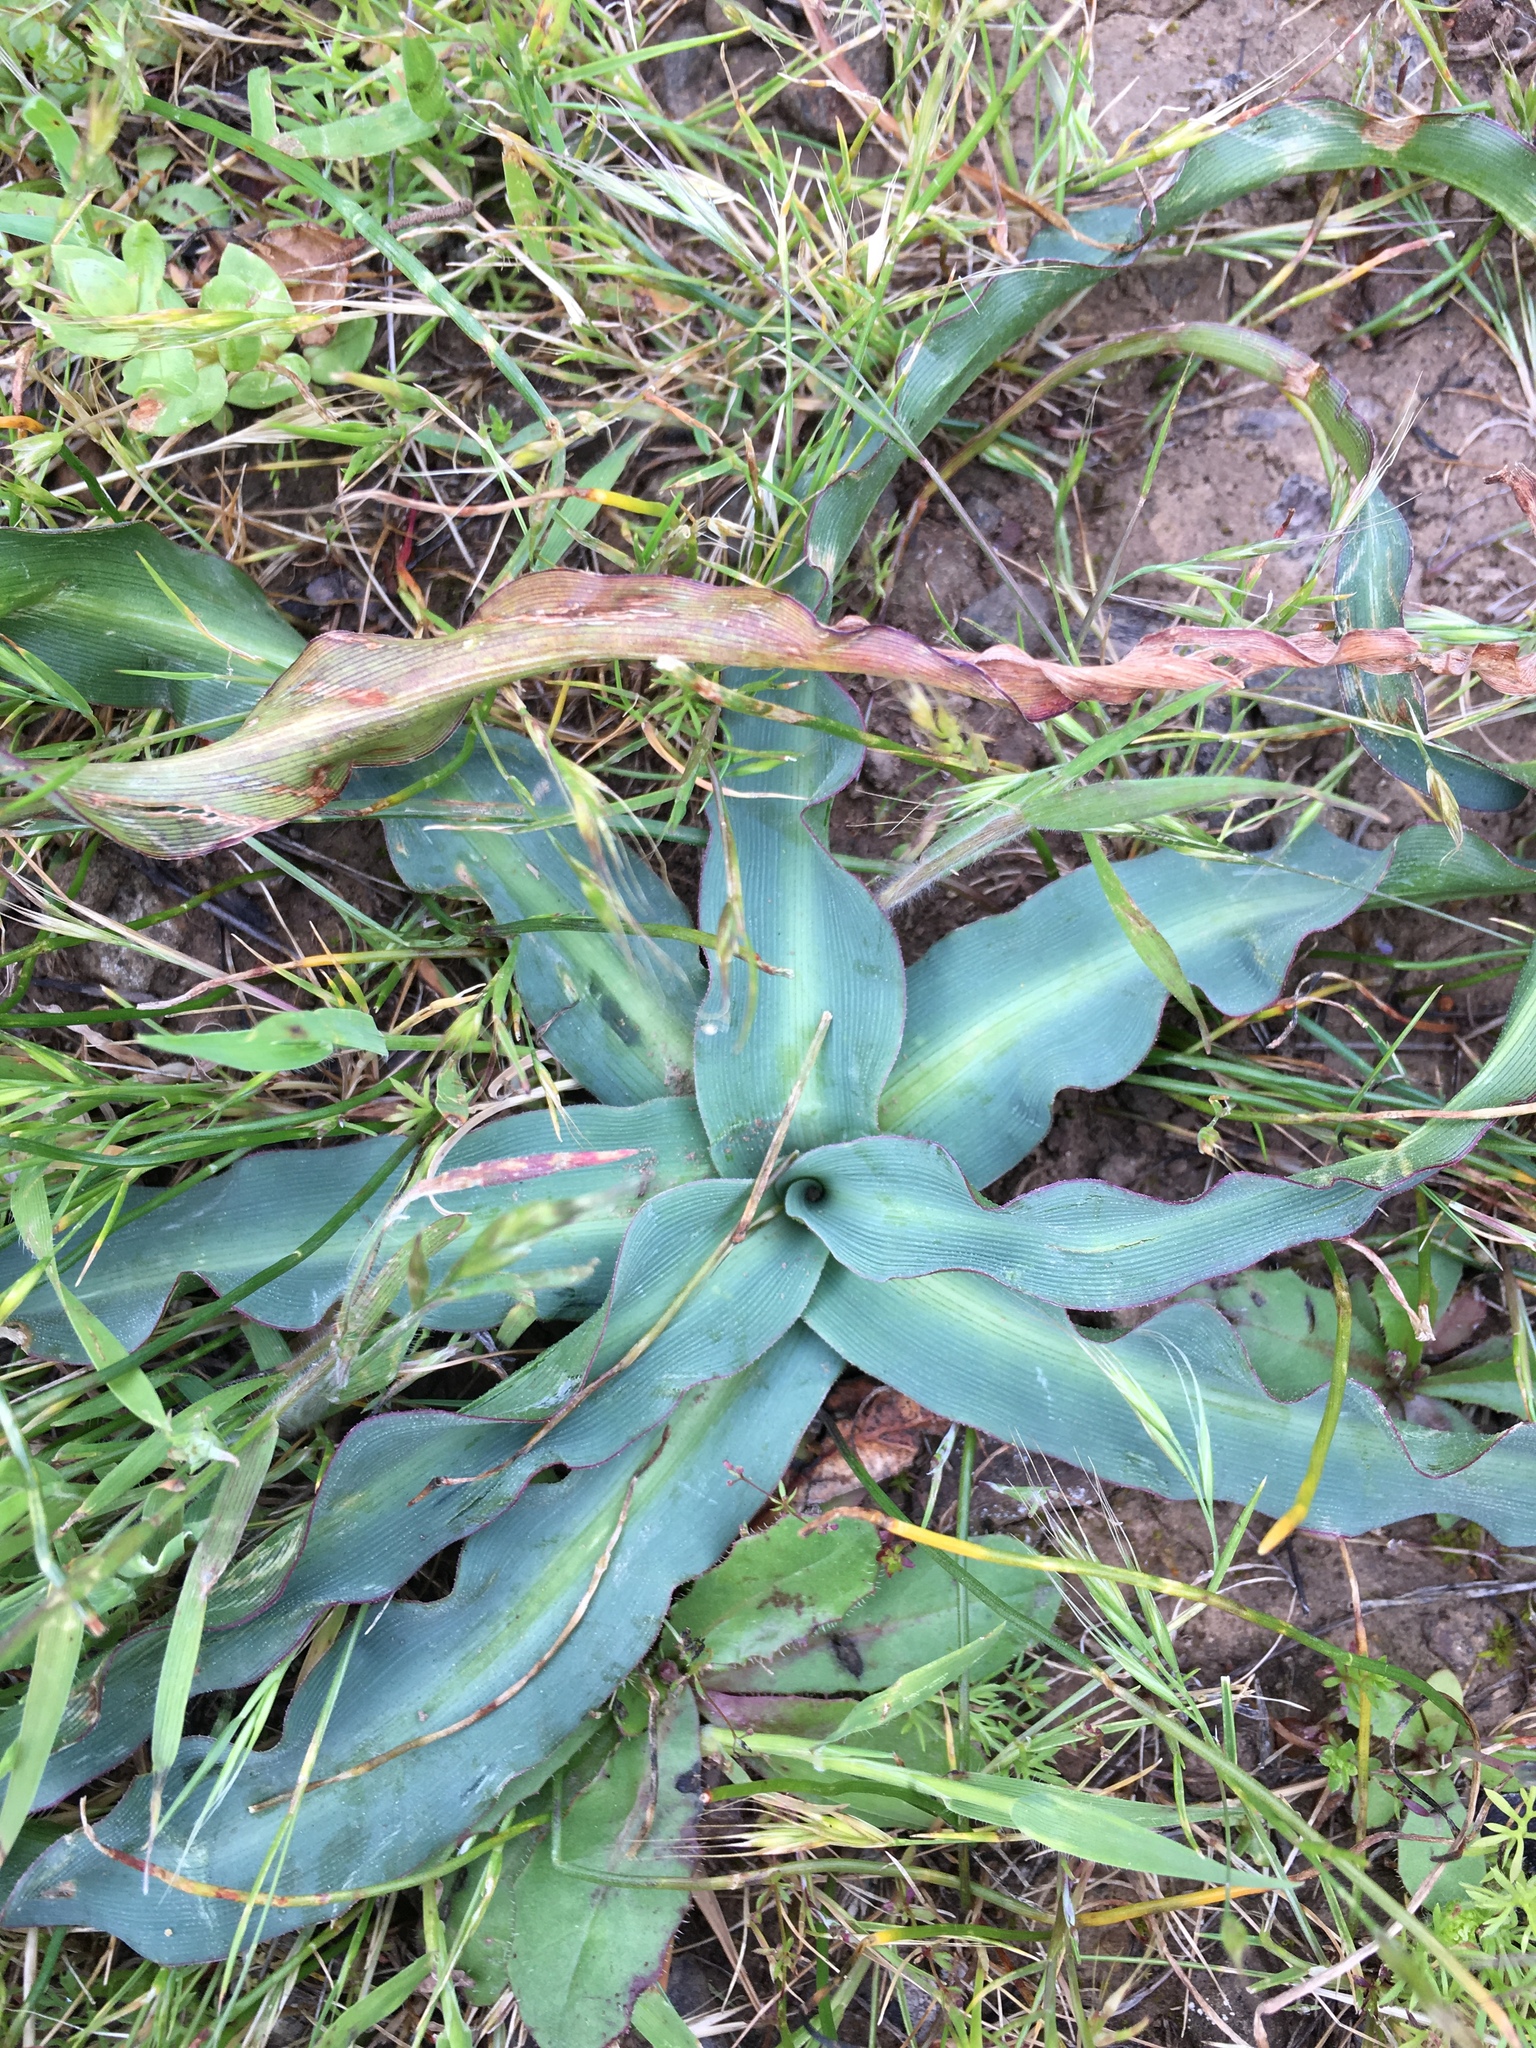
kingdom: Plantae
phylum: Tracheophyta
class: Liliopsida
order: Asparagales
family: Asparagaceae
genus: Chlorogalum
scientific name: Chlorogalum pomeridianum
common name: Amole
